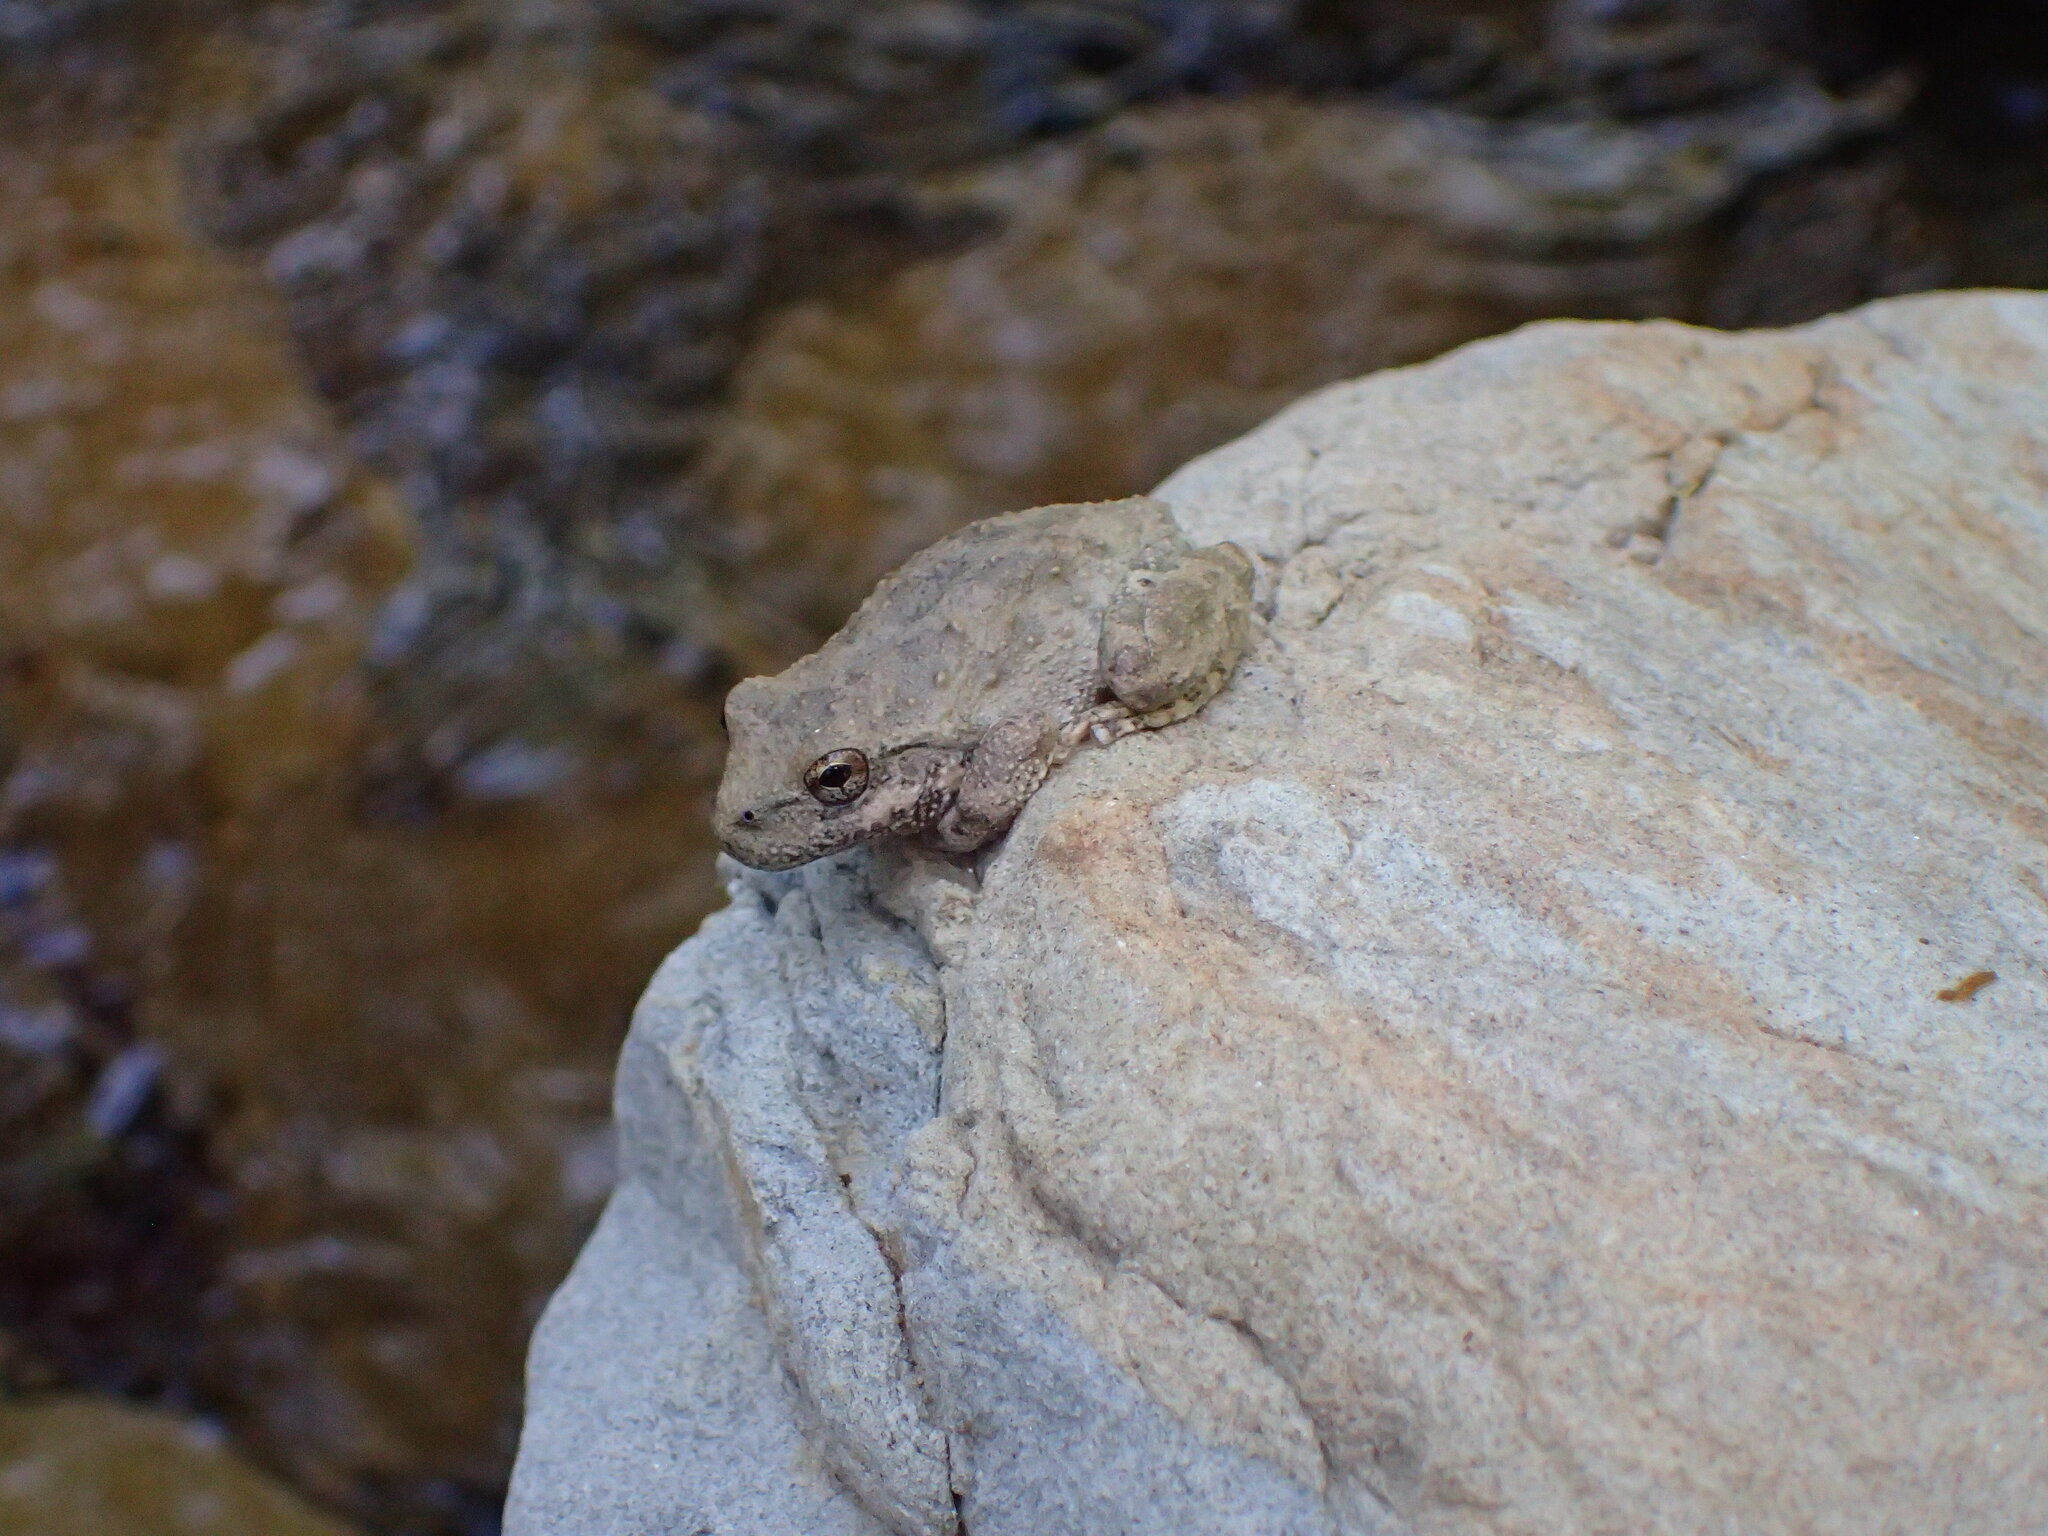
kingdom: Animalia
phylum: Chordata
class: Amphibia
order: Anura
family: Hylidae
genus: Pseudacris
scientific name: Pseudacris cadaverina
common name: California chorus frog
